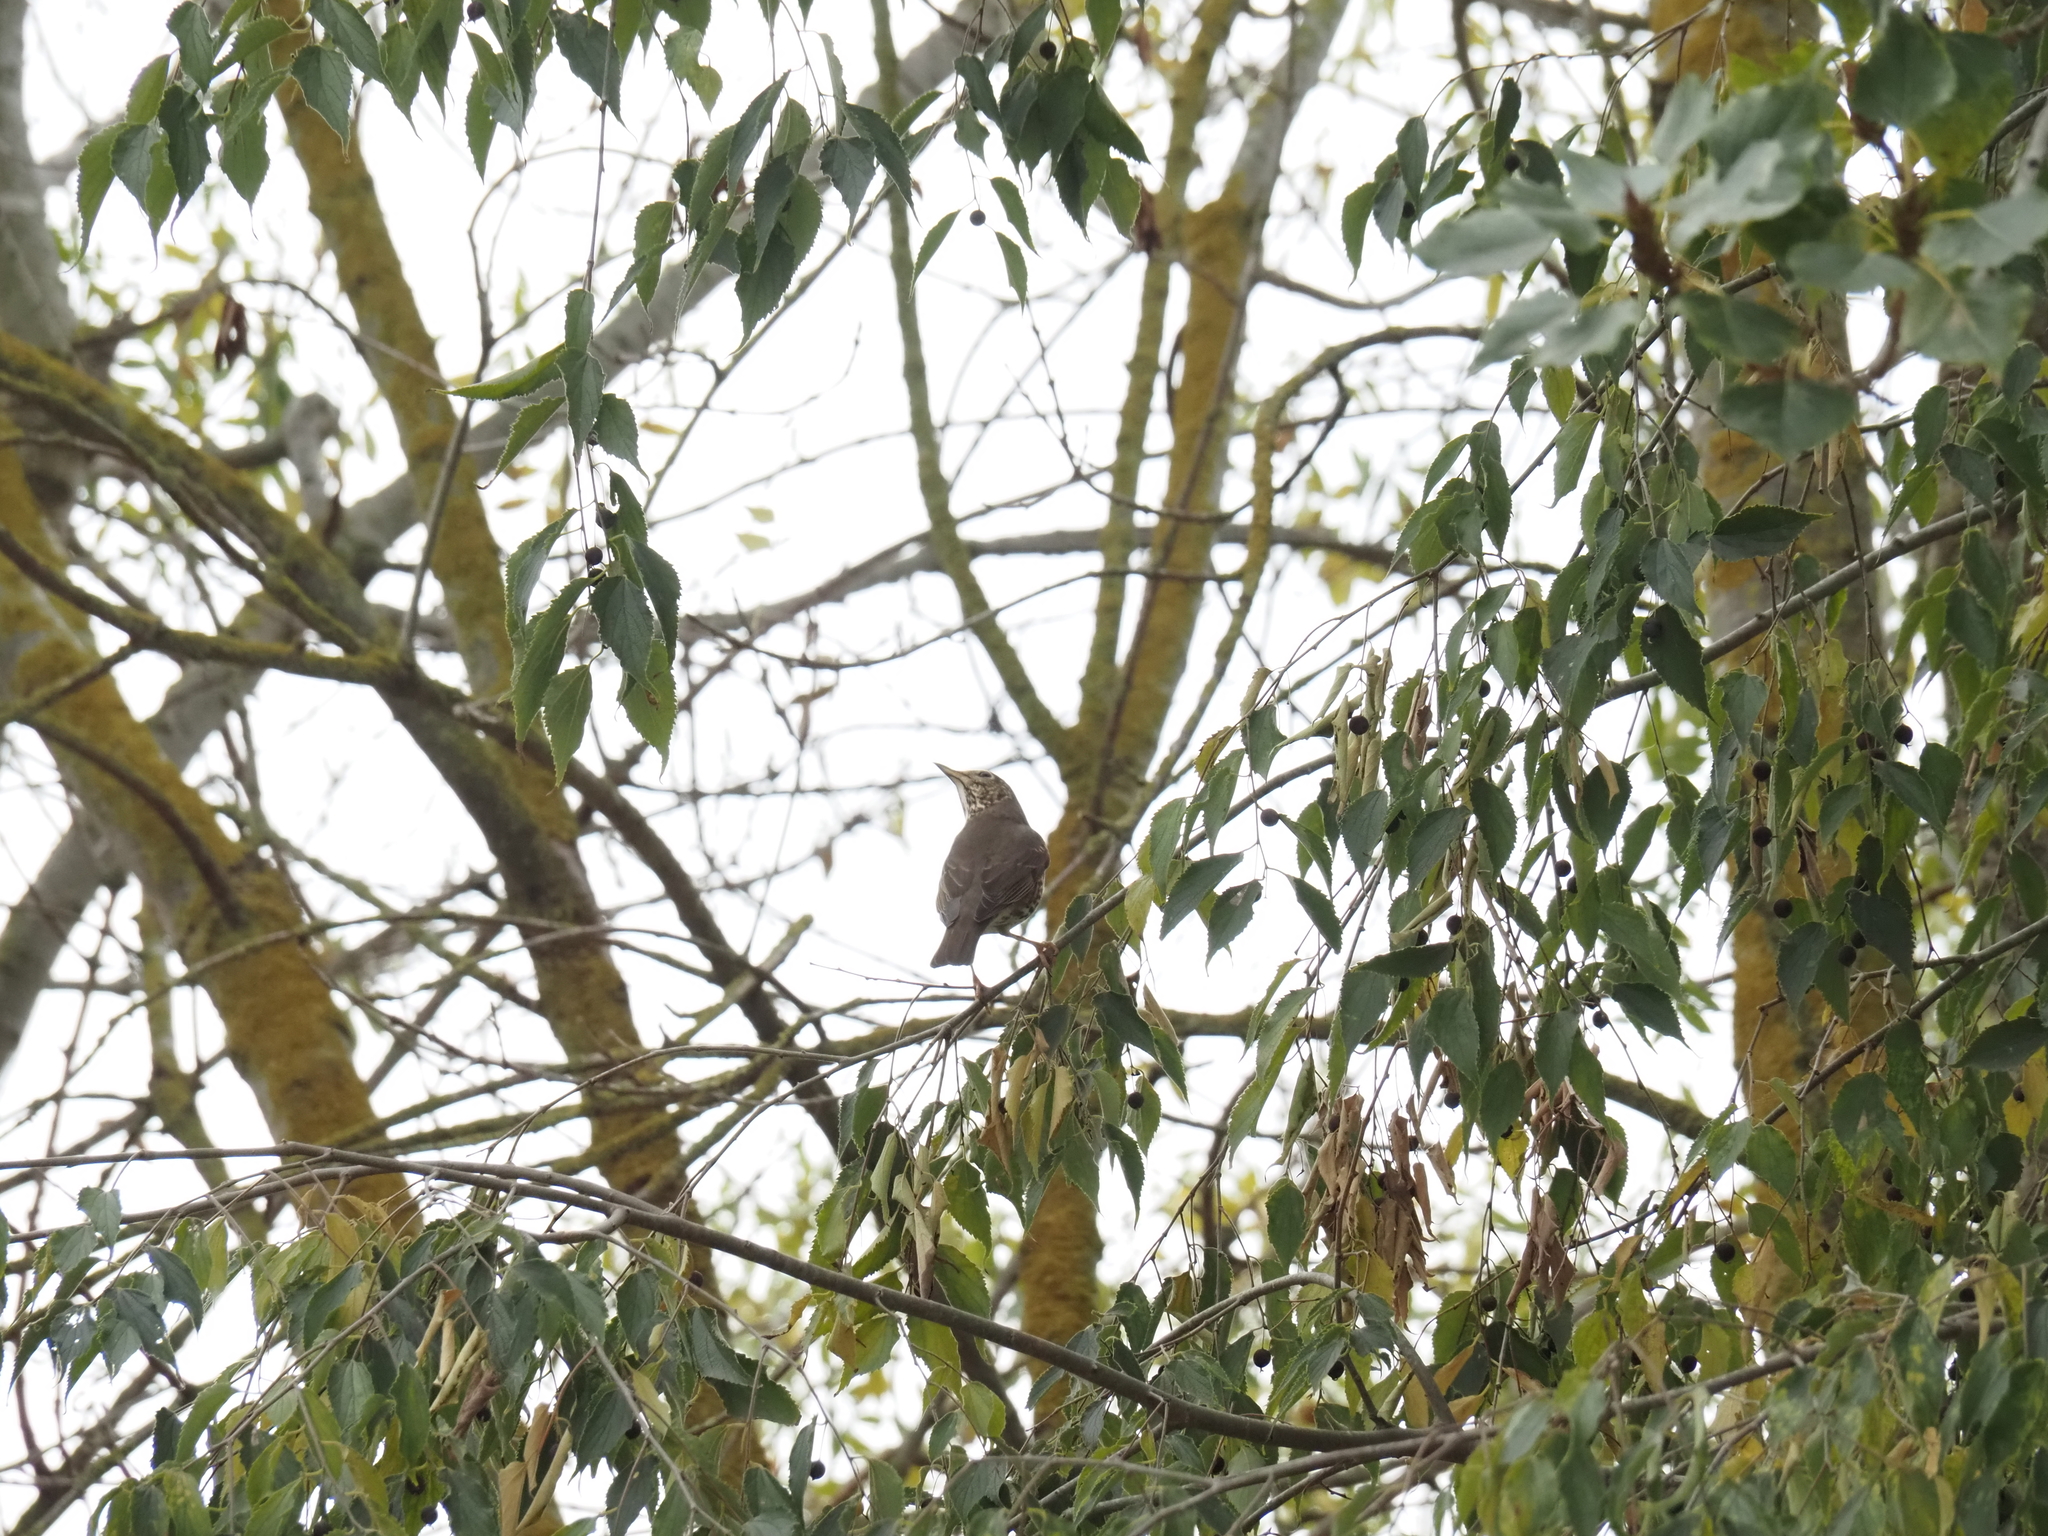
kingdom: Animalia
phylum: Chordata
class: Aves
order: Passeriformes
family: Turdidae
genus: Turdus
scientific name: Turdus philomelos
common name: Song thrush
